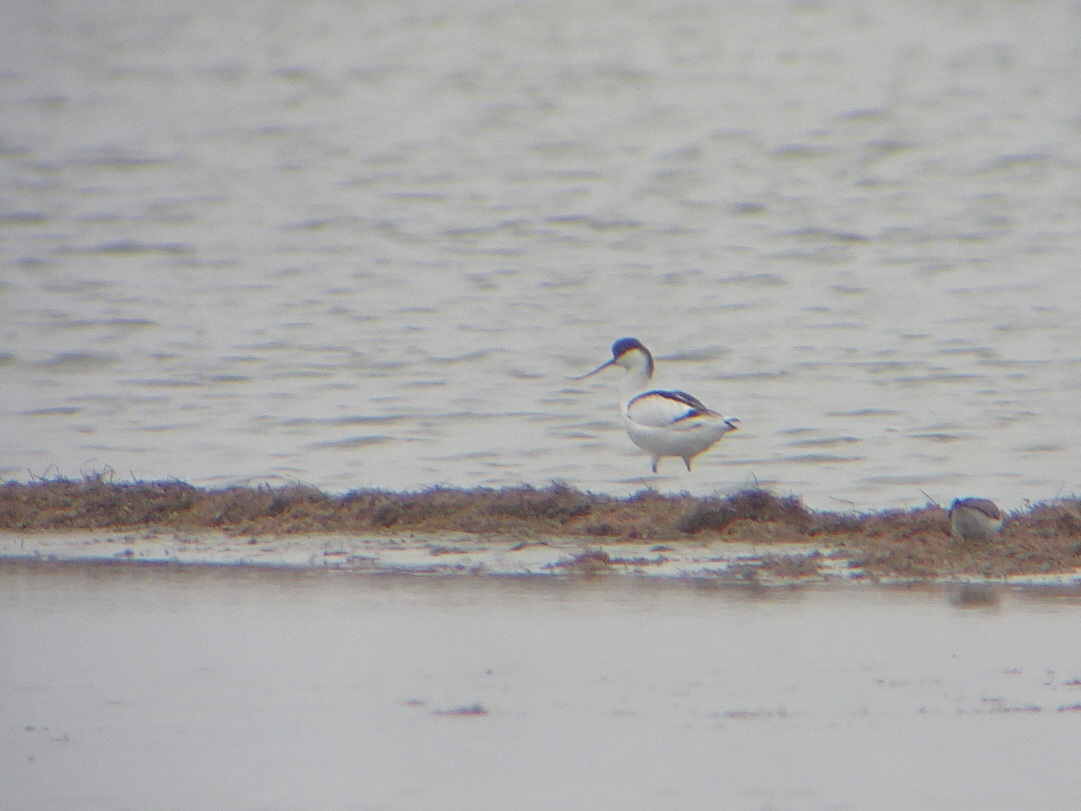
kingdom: Animalia
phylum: Chordata
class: Aves
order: Charadriiformes
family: Recurvirostridae
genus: Recurvirostra
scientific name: Recurvirostra avosetta
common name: Pied avocet
